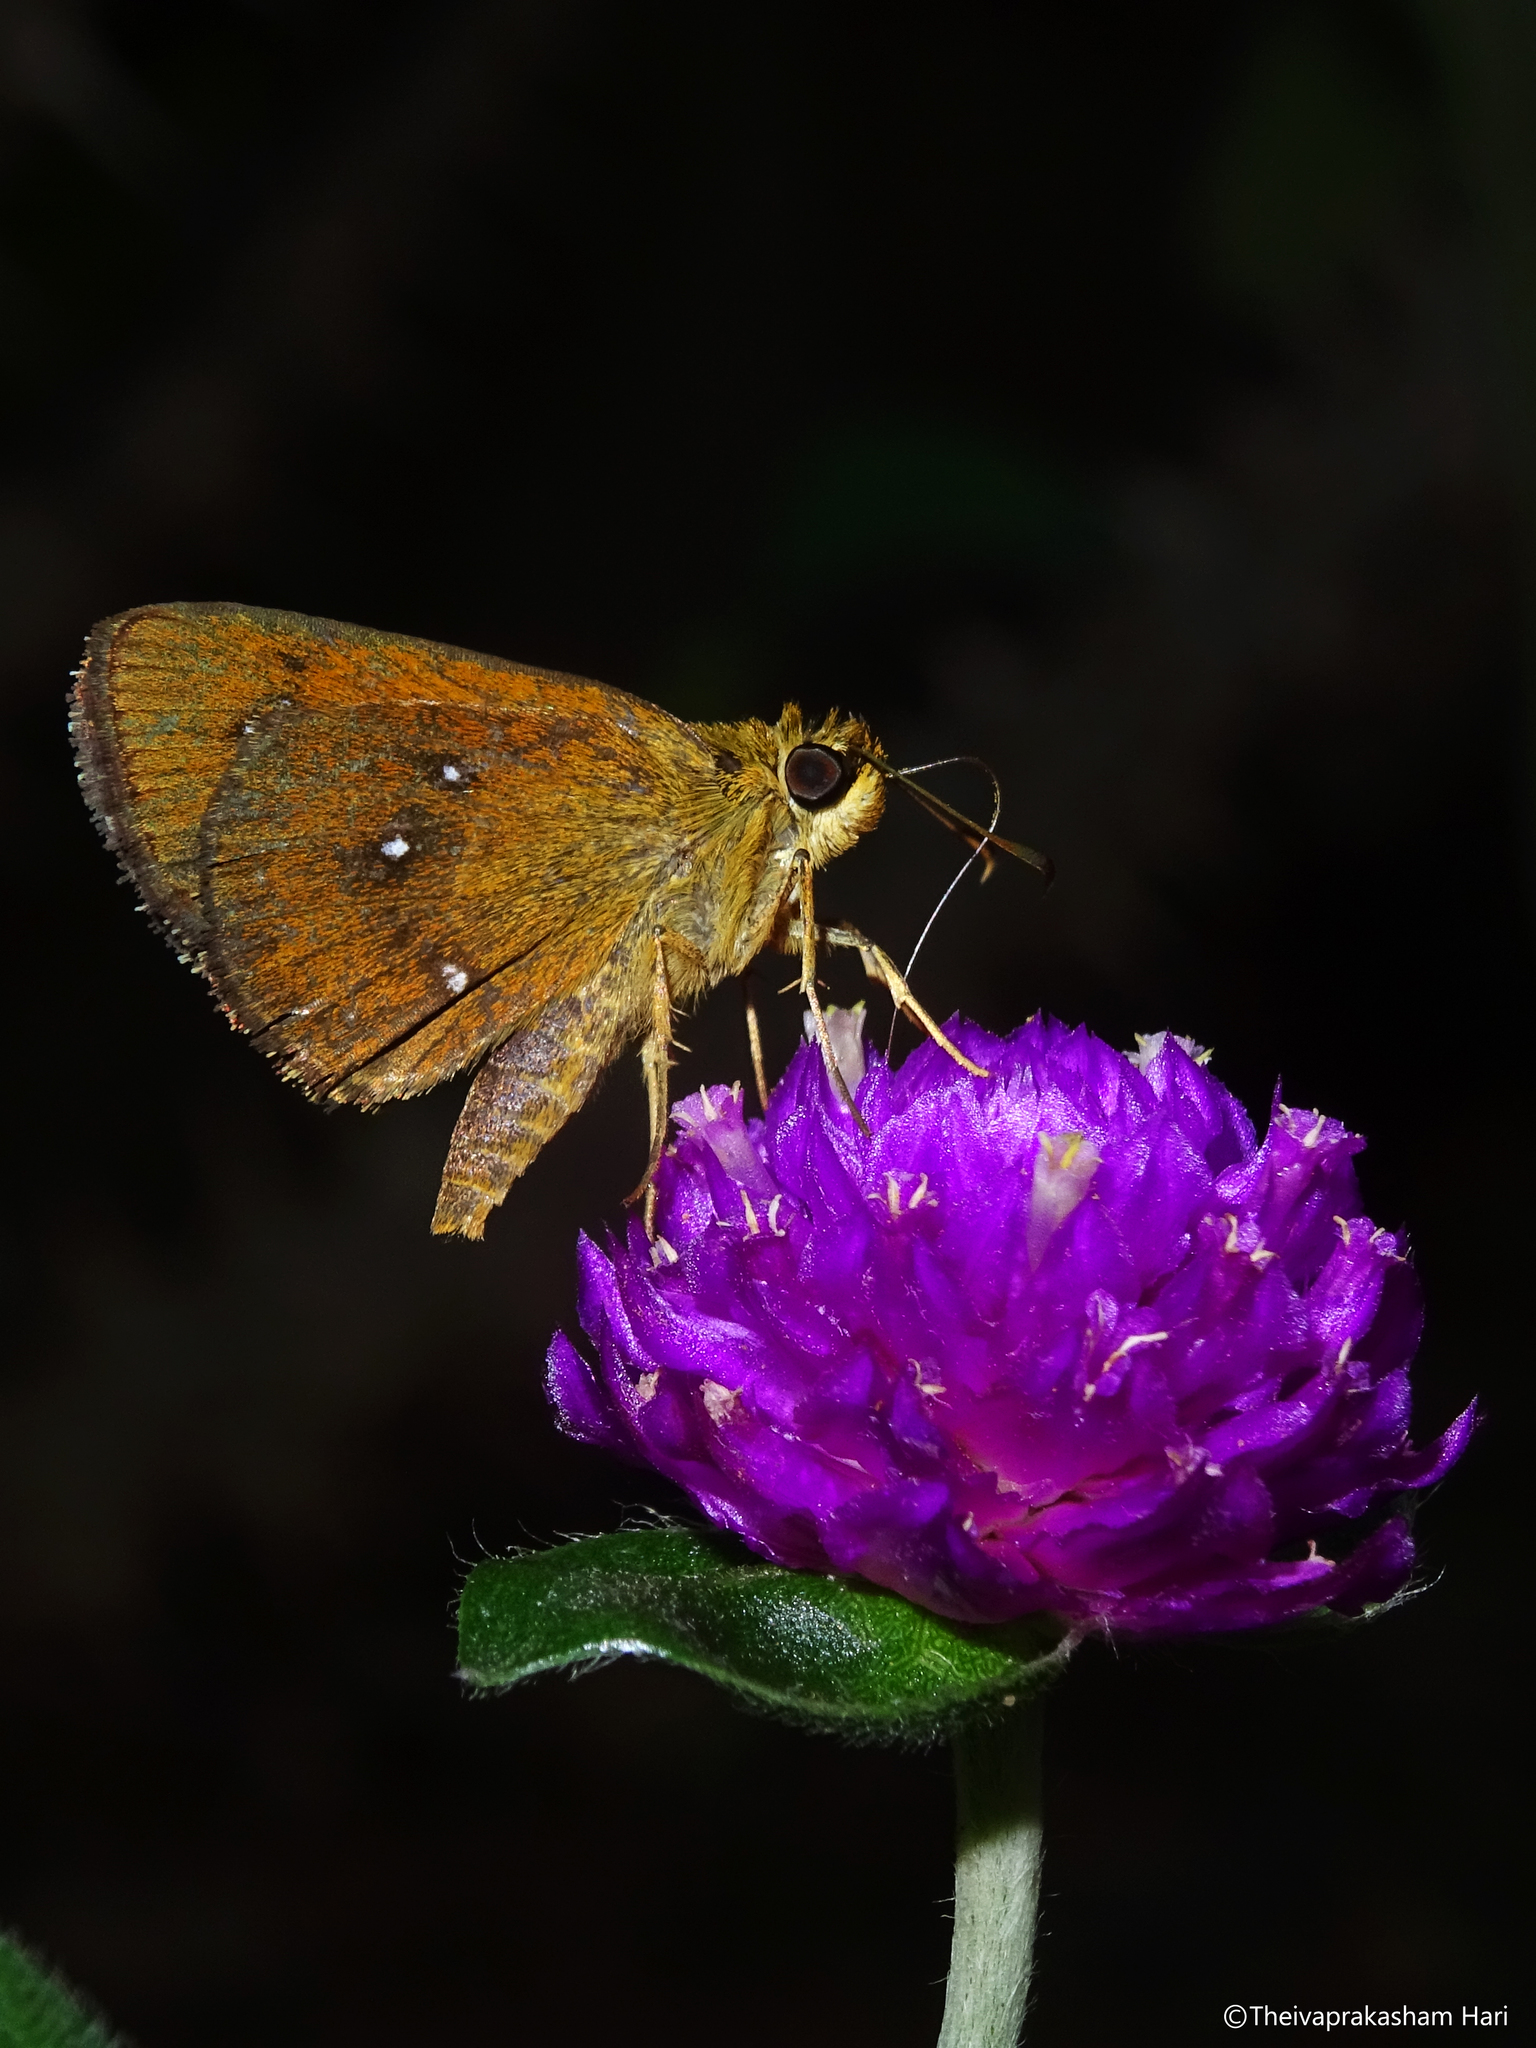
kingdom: Animalia
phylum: Arthropoda
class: Insecta
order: Lepidoptera
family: Hesperiidae
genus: Iambrix
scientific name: Iambrix salsala
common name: Chestnut bob
